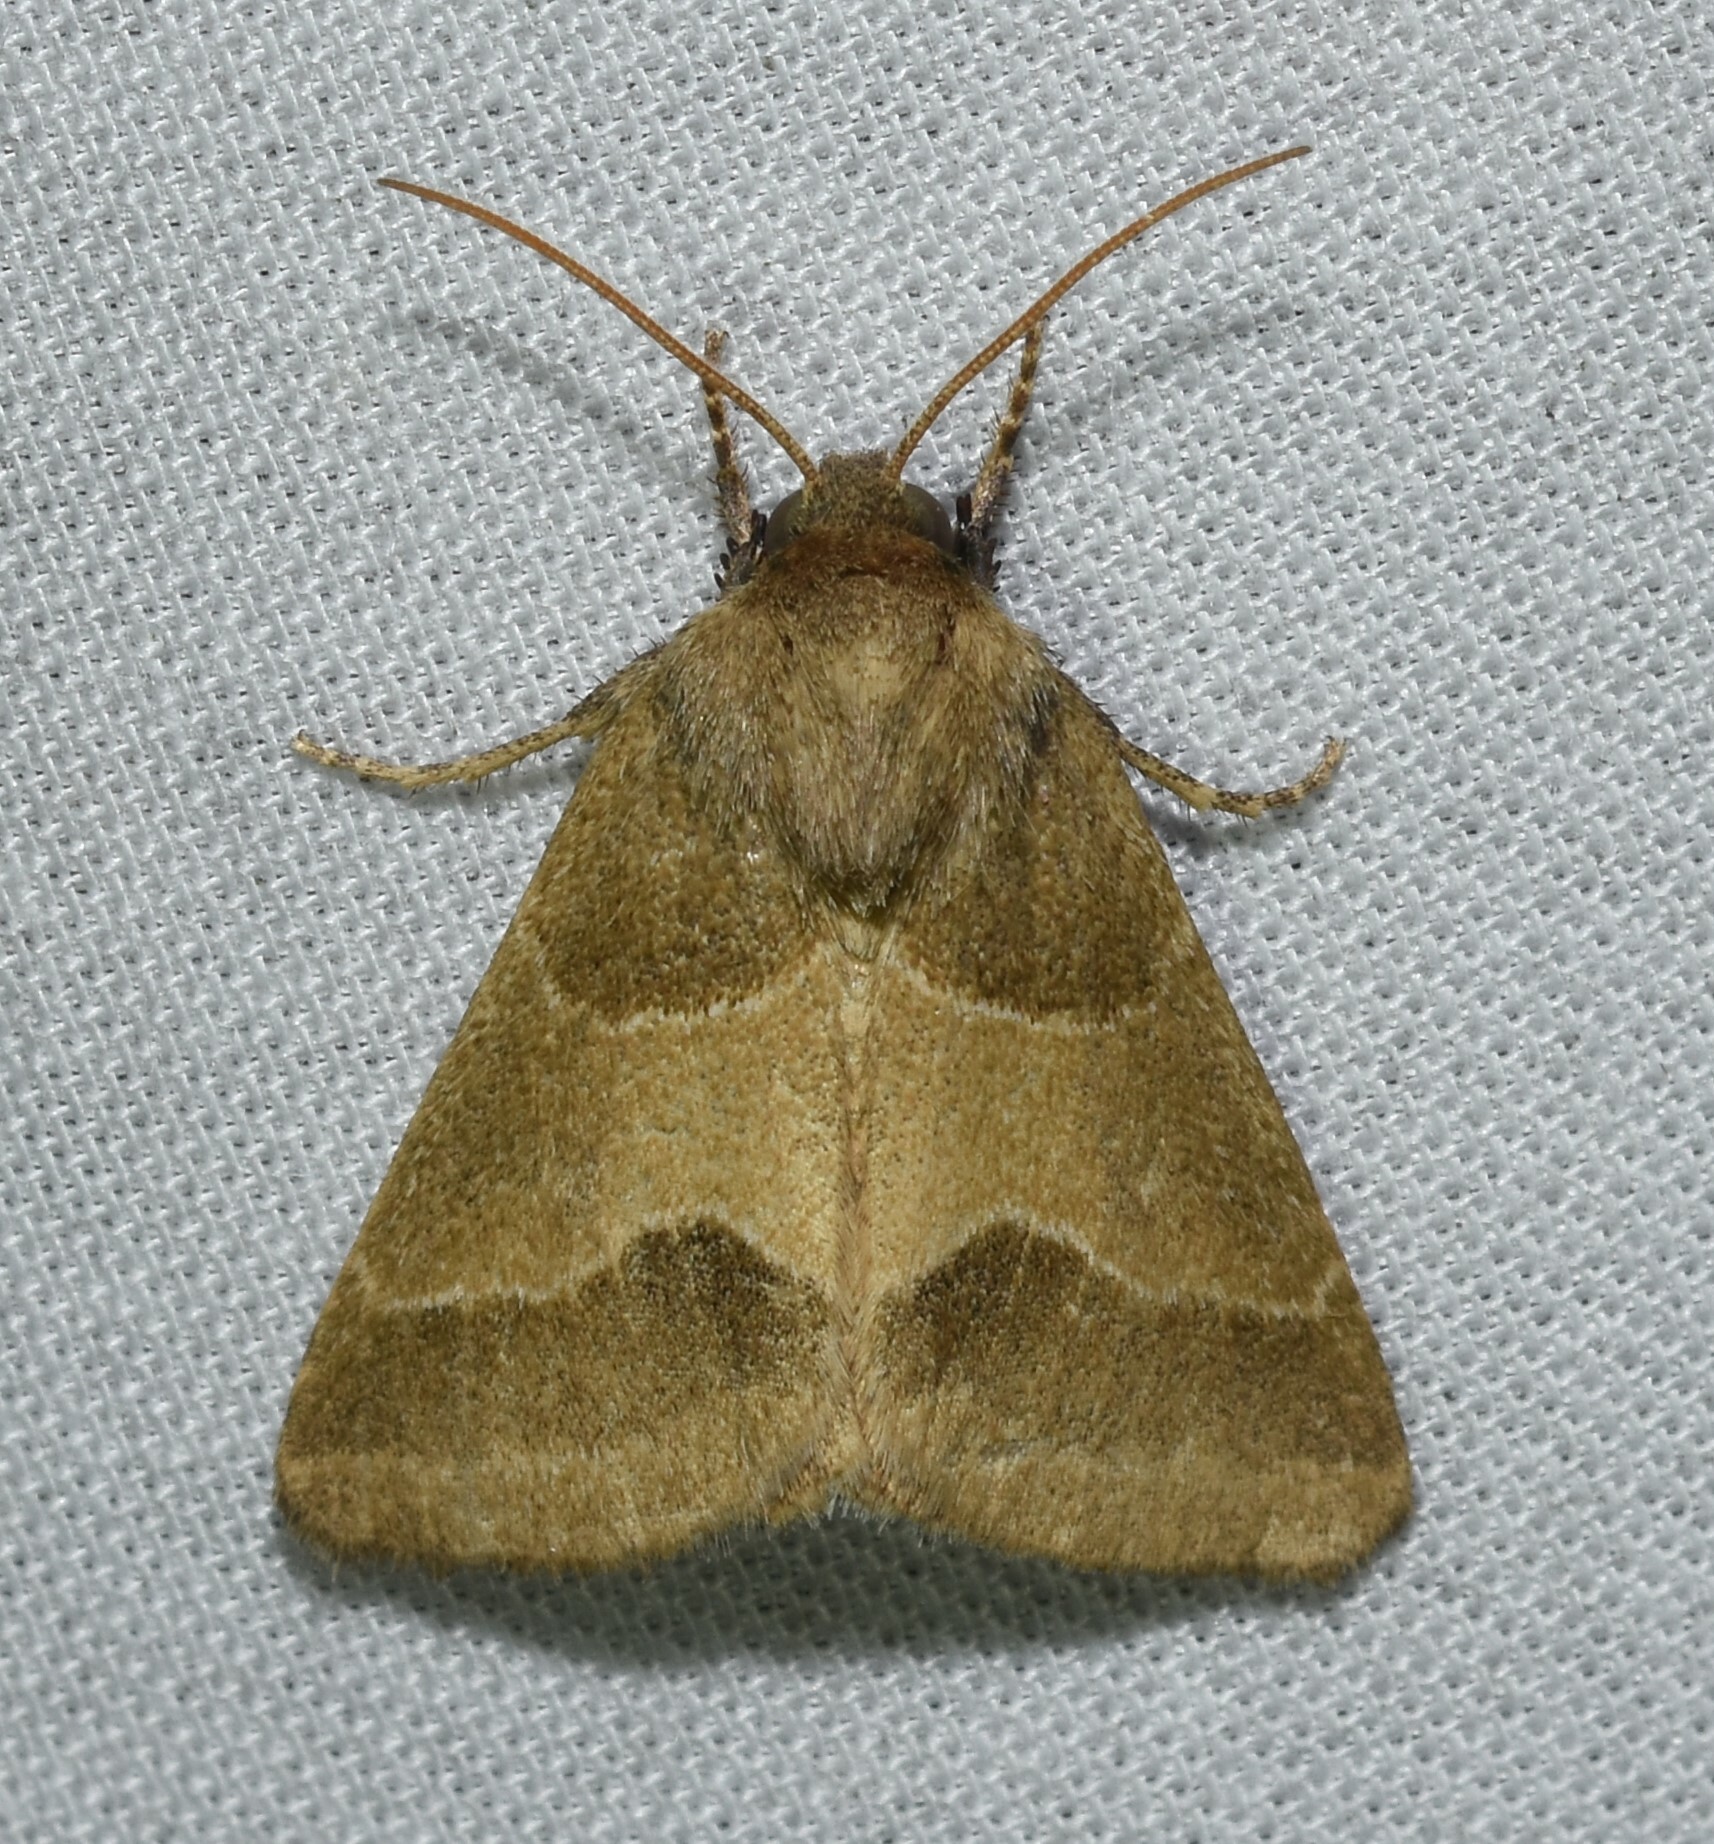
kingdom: Animalia
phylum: Arthropoda
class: Insecta
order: Lepidoptera
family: Noctuidae
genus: Schinia
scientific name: Schinia gracilenta
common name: Slender flower moth
